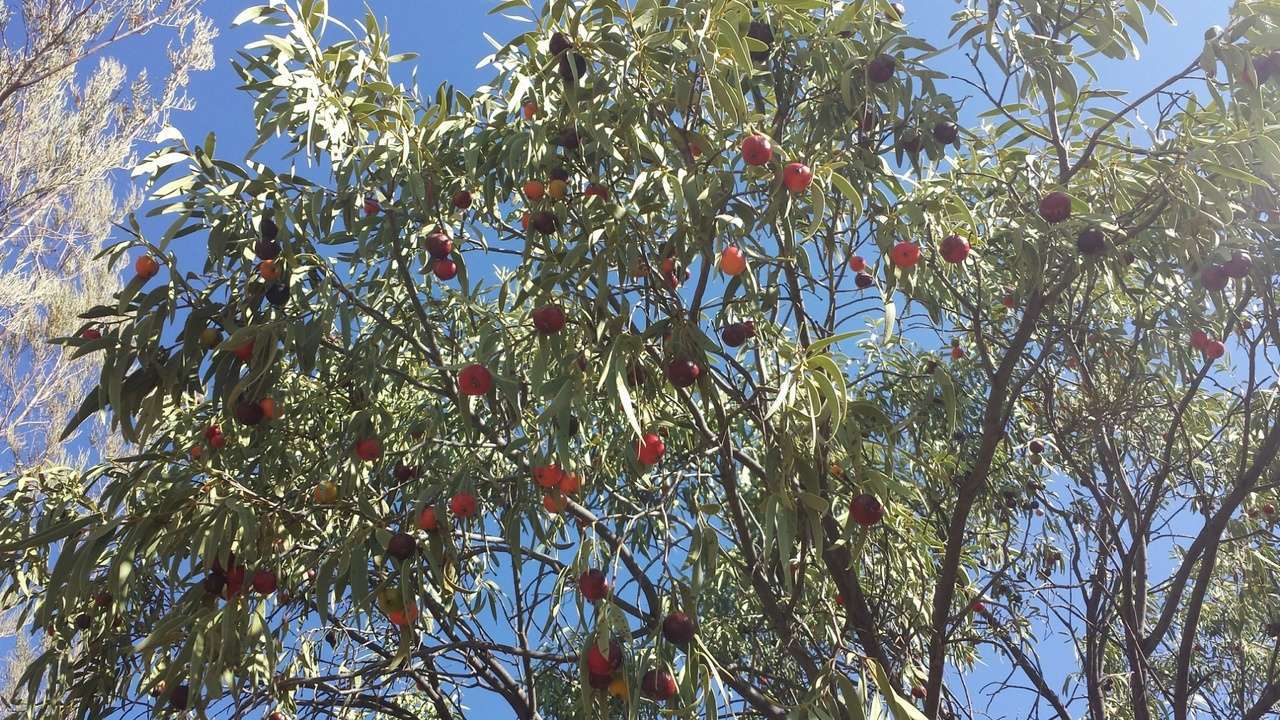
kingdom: Plantae
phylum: Tracheophyta
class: Magnoliopsida
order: Santalales
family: Santalaceae
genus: Santalum
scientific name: Santalum acuminatum
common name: Sweet quandong
